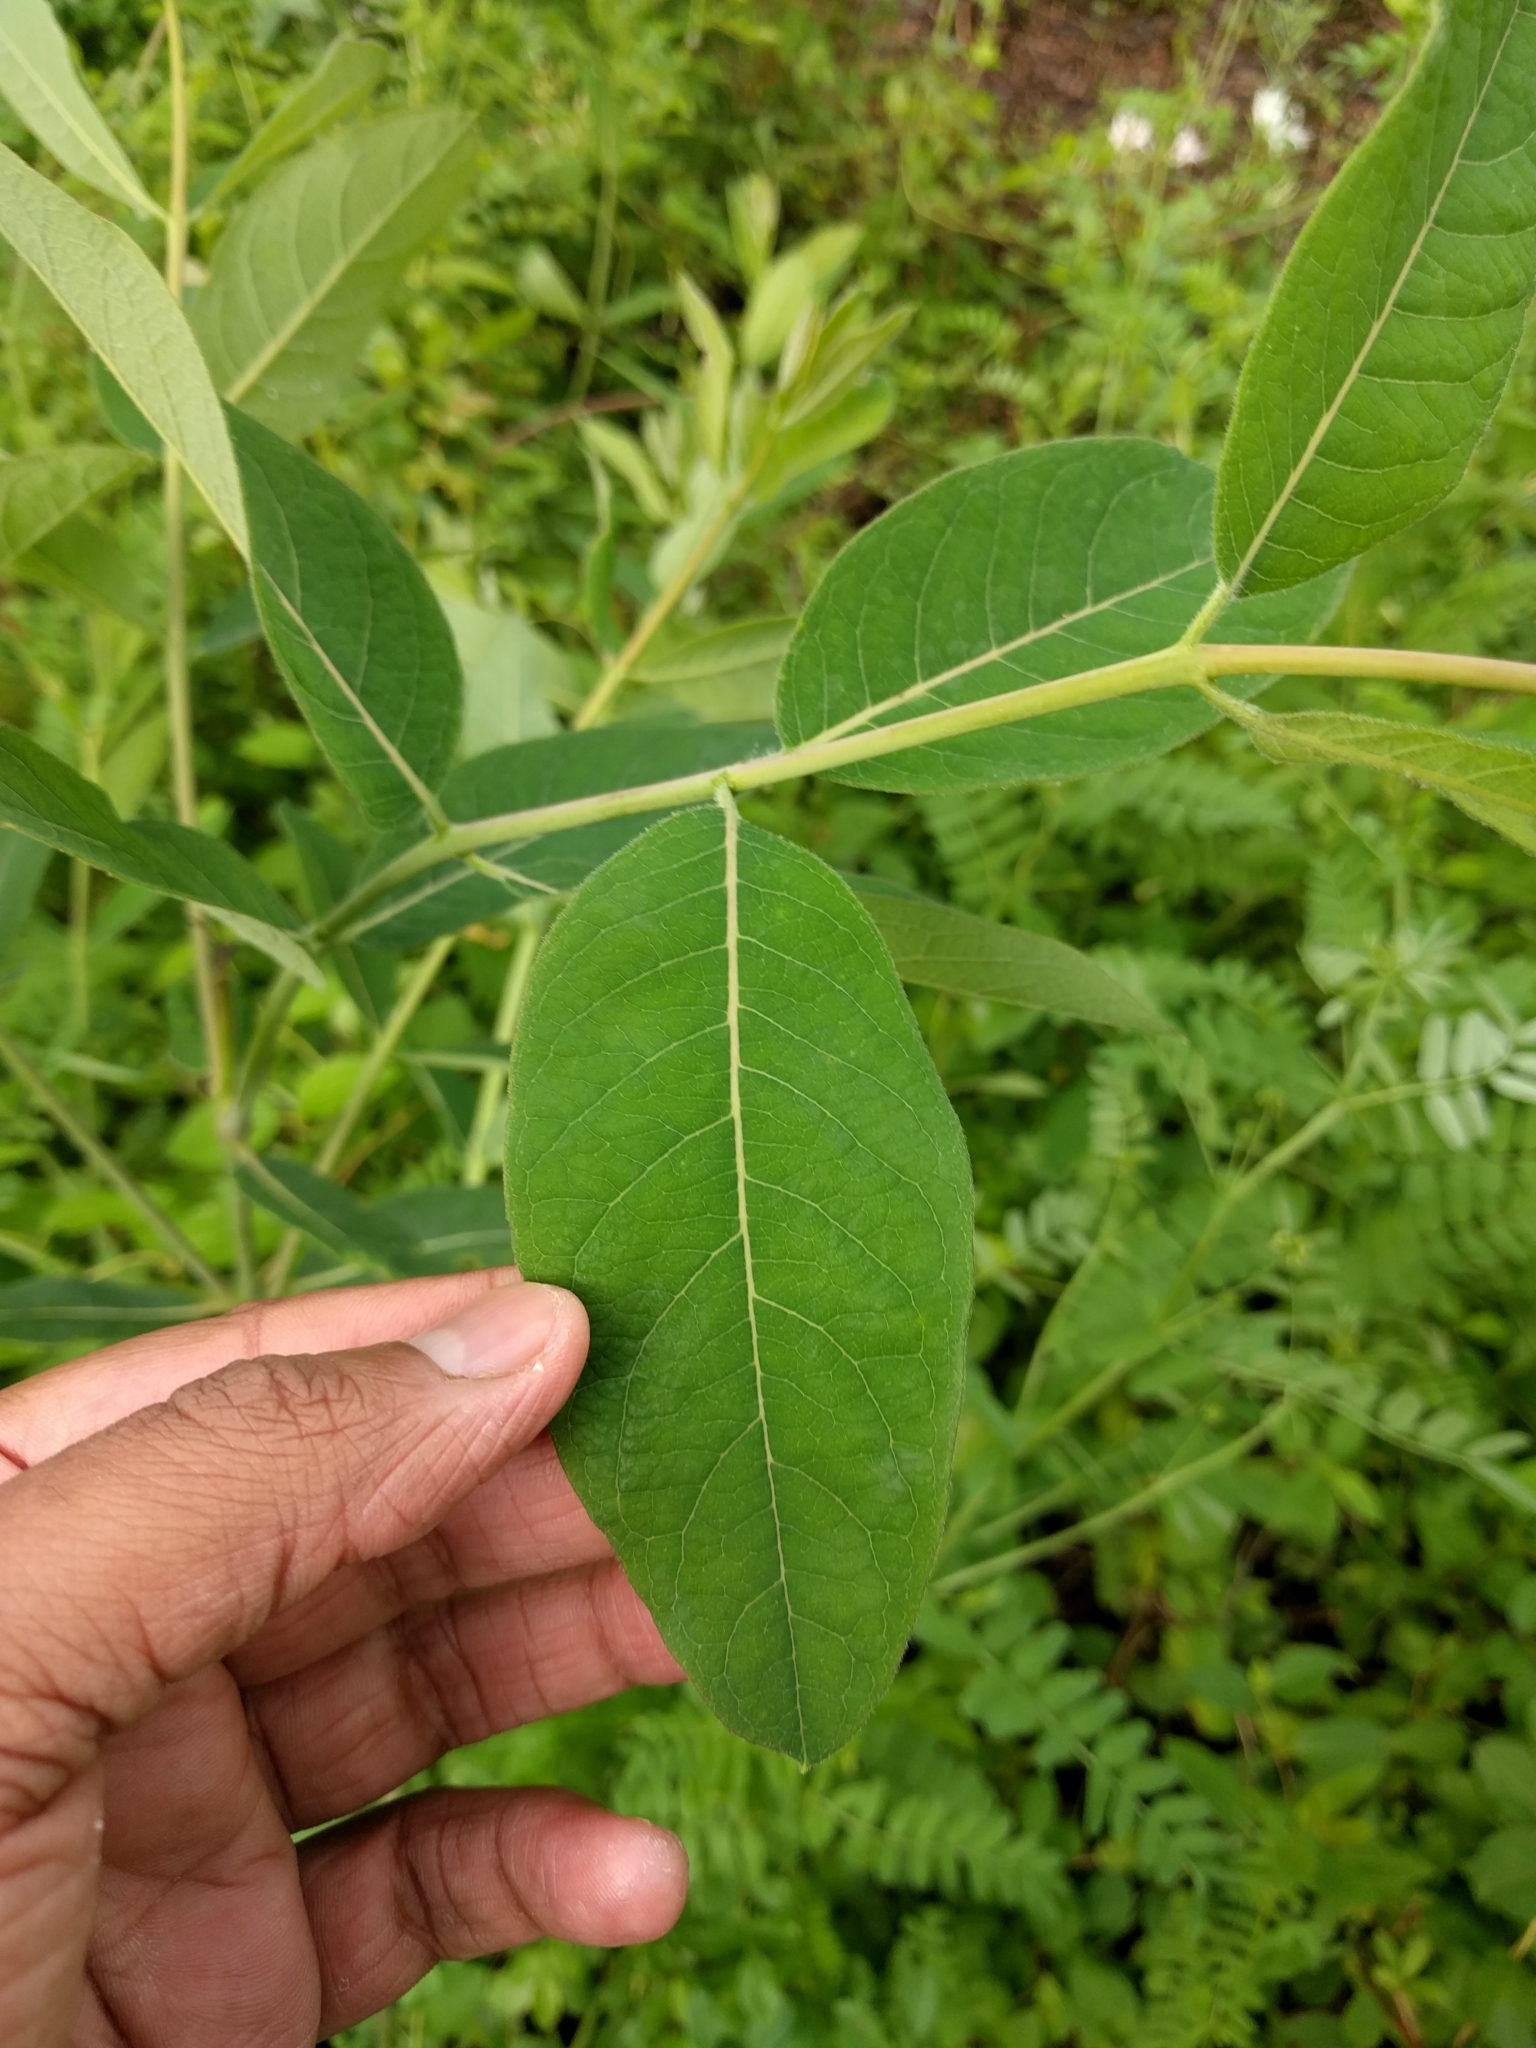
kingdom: Plantae
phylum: Tracheophyta
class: Magnoliopsida
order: Gentianales
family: Apocynaceae
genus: Apocynum
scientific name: Apocynum cannabinum
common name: Hemp dogbane
